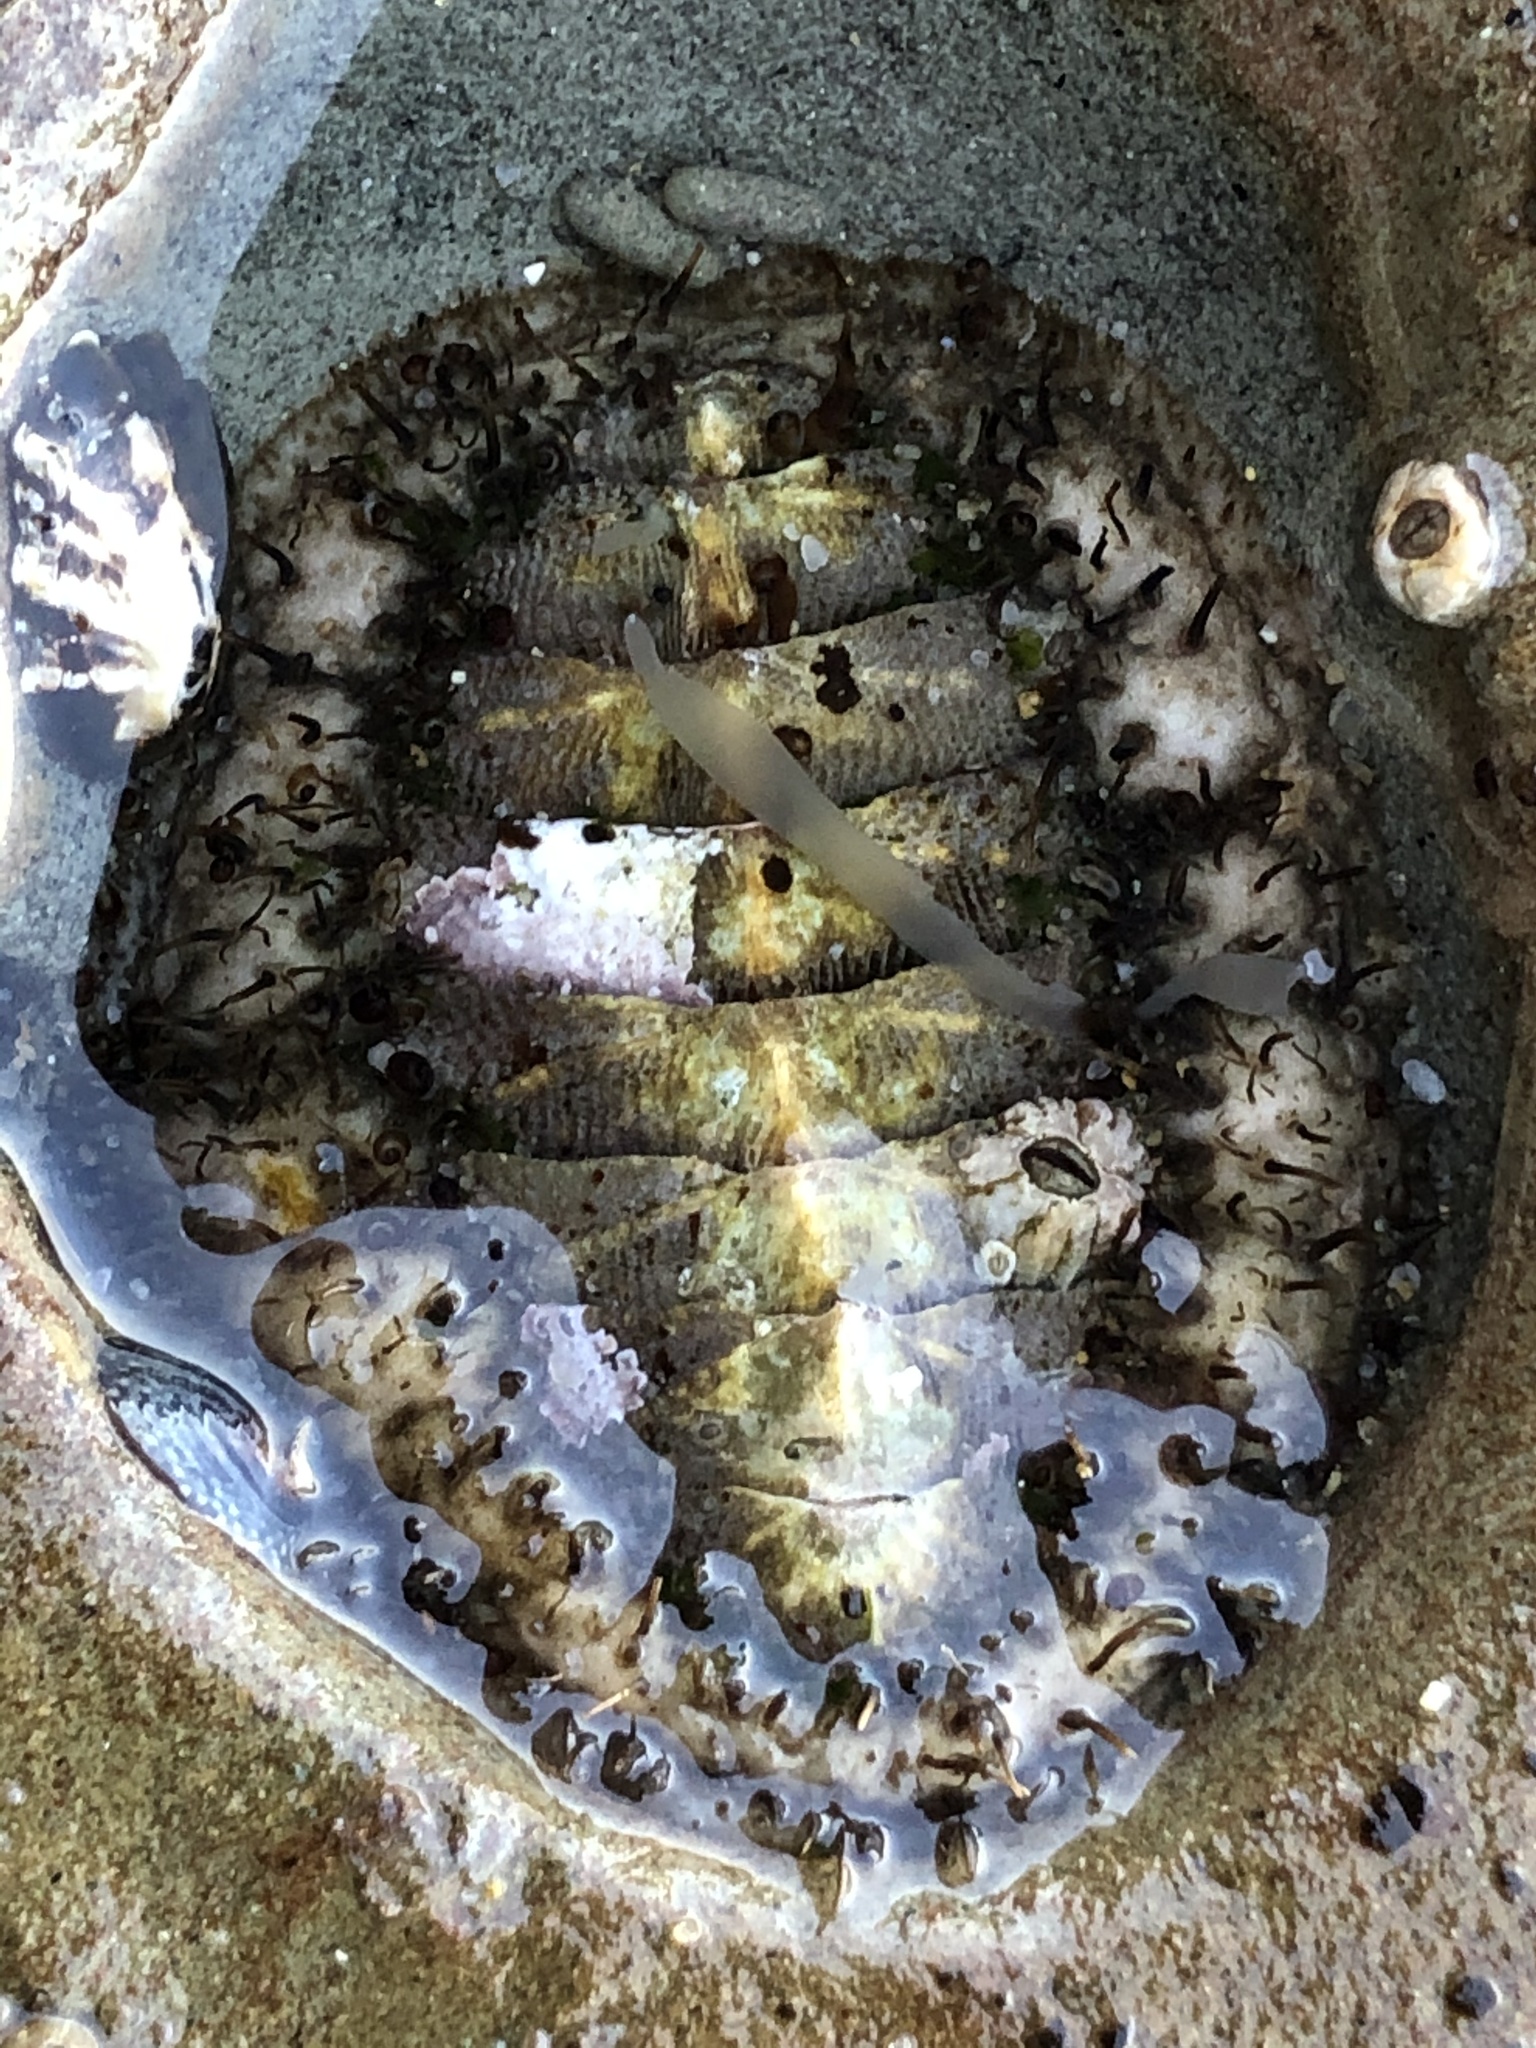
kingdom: Animalia
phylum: Mollusca
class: Polyplacophora
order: Chitonida
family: Mopaliidae
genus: Mopalia
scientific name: Mopalia muscosa
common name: Mossy chiton
